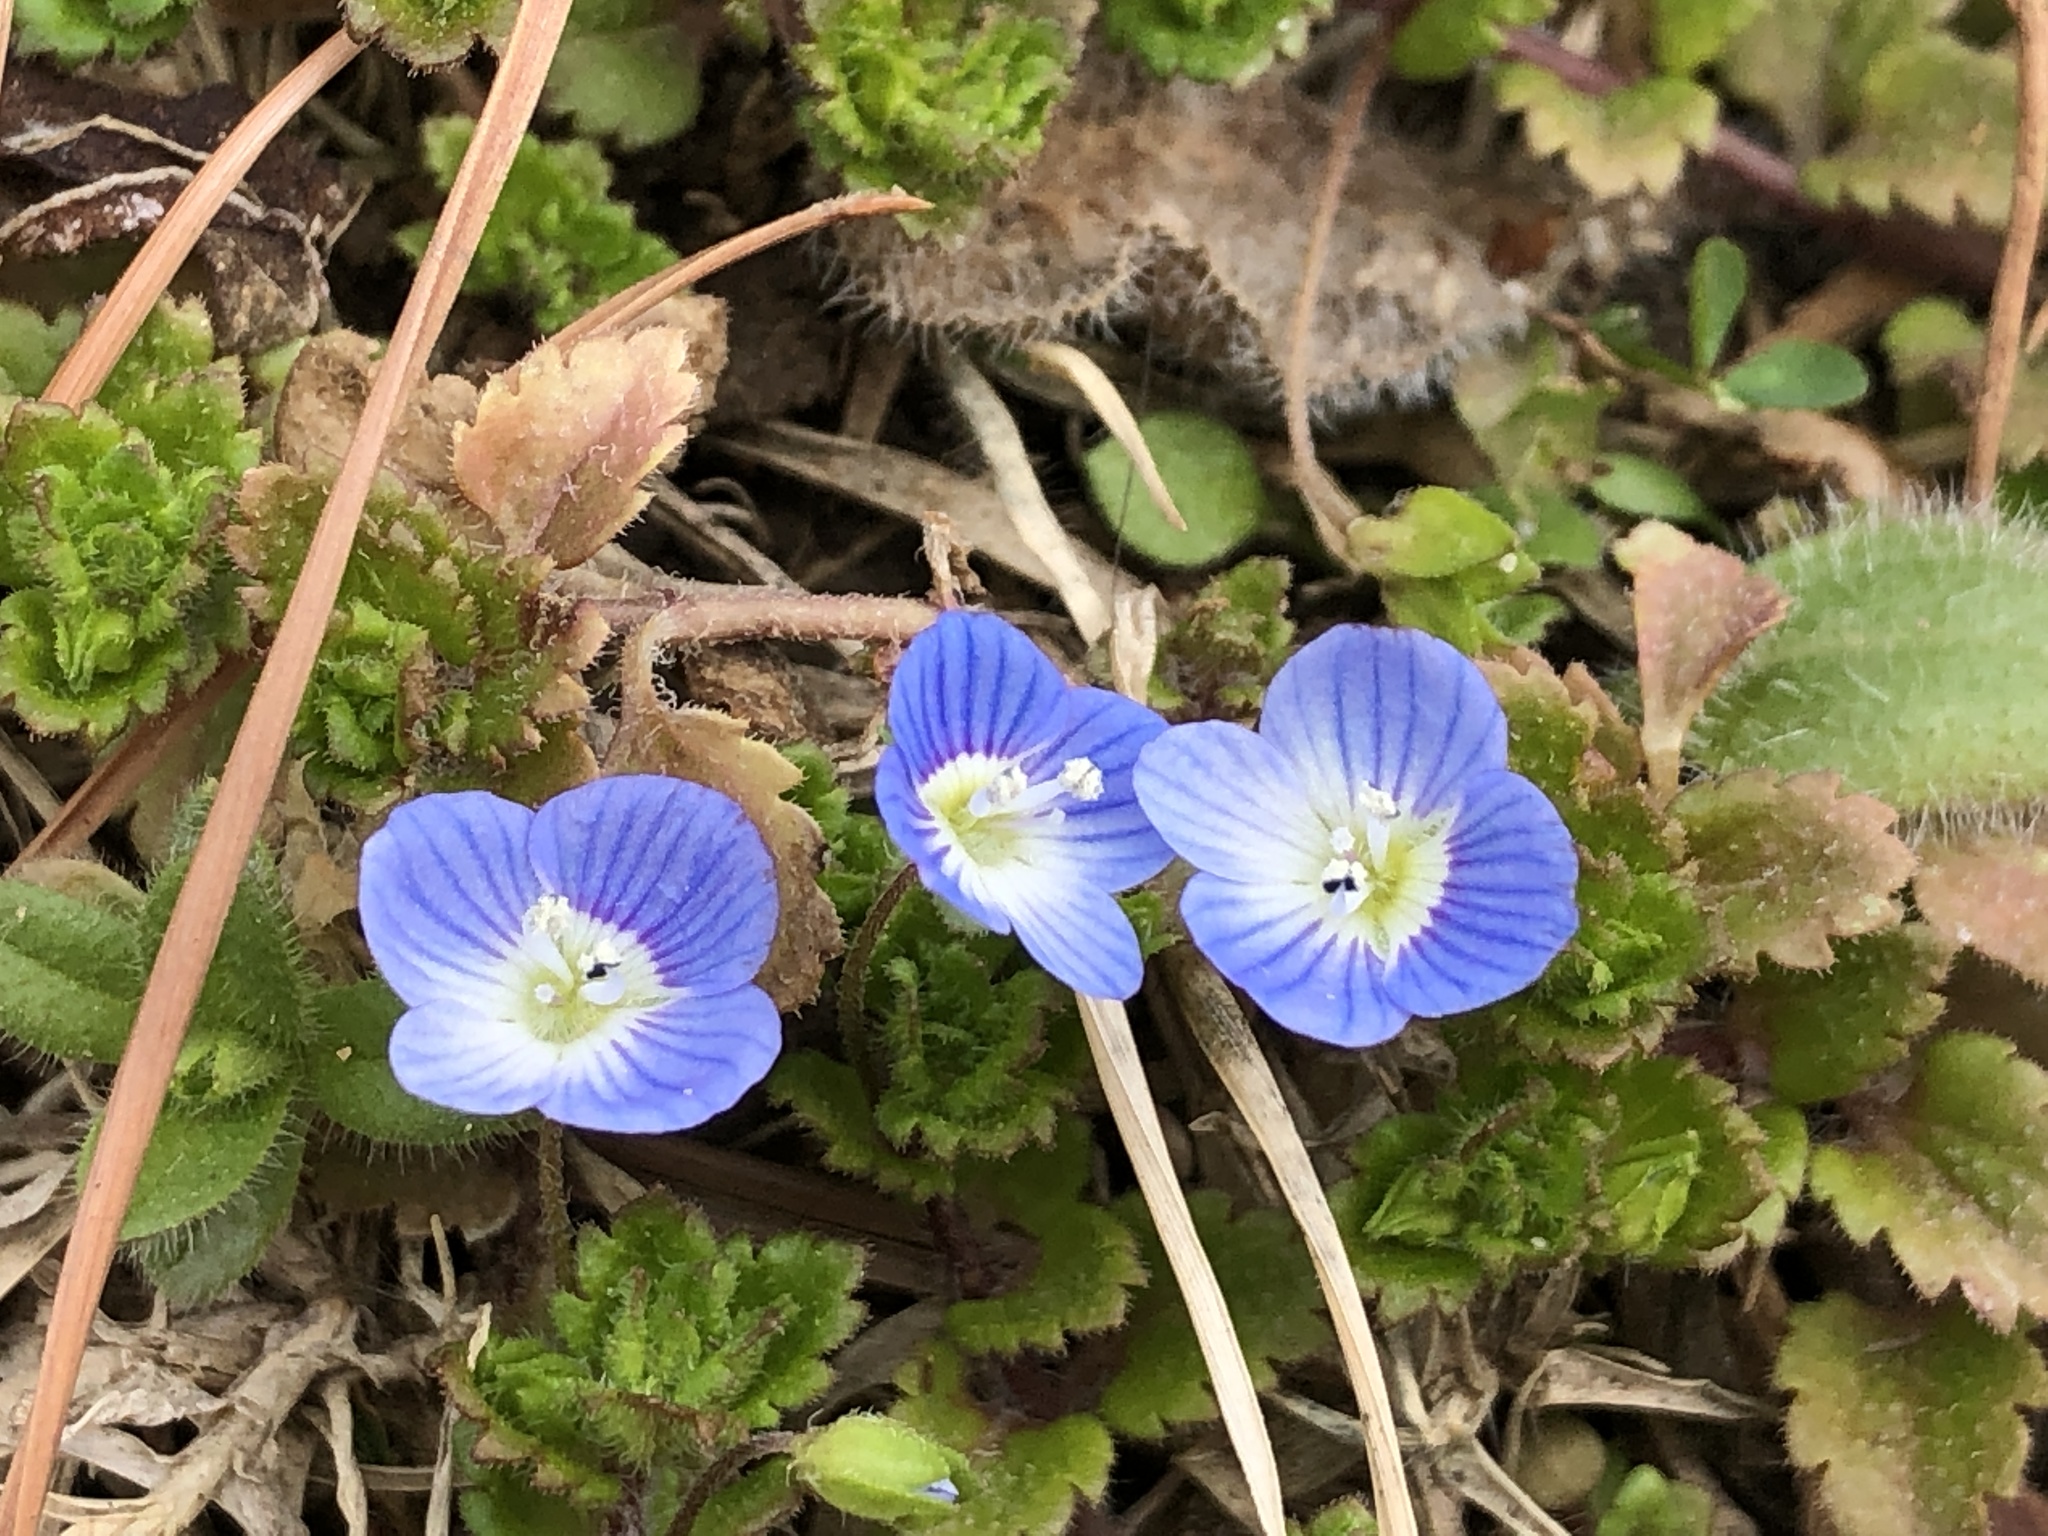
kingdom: Plantae
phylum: Tracheophyta
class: Magnoliopsida
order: Lamiales
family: Plantaginaceae
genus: Veronica
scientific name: Veronica persica
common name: Common field-speedwell
